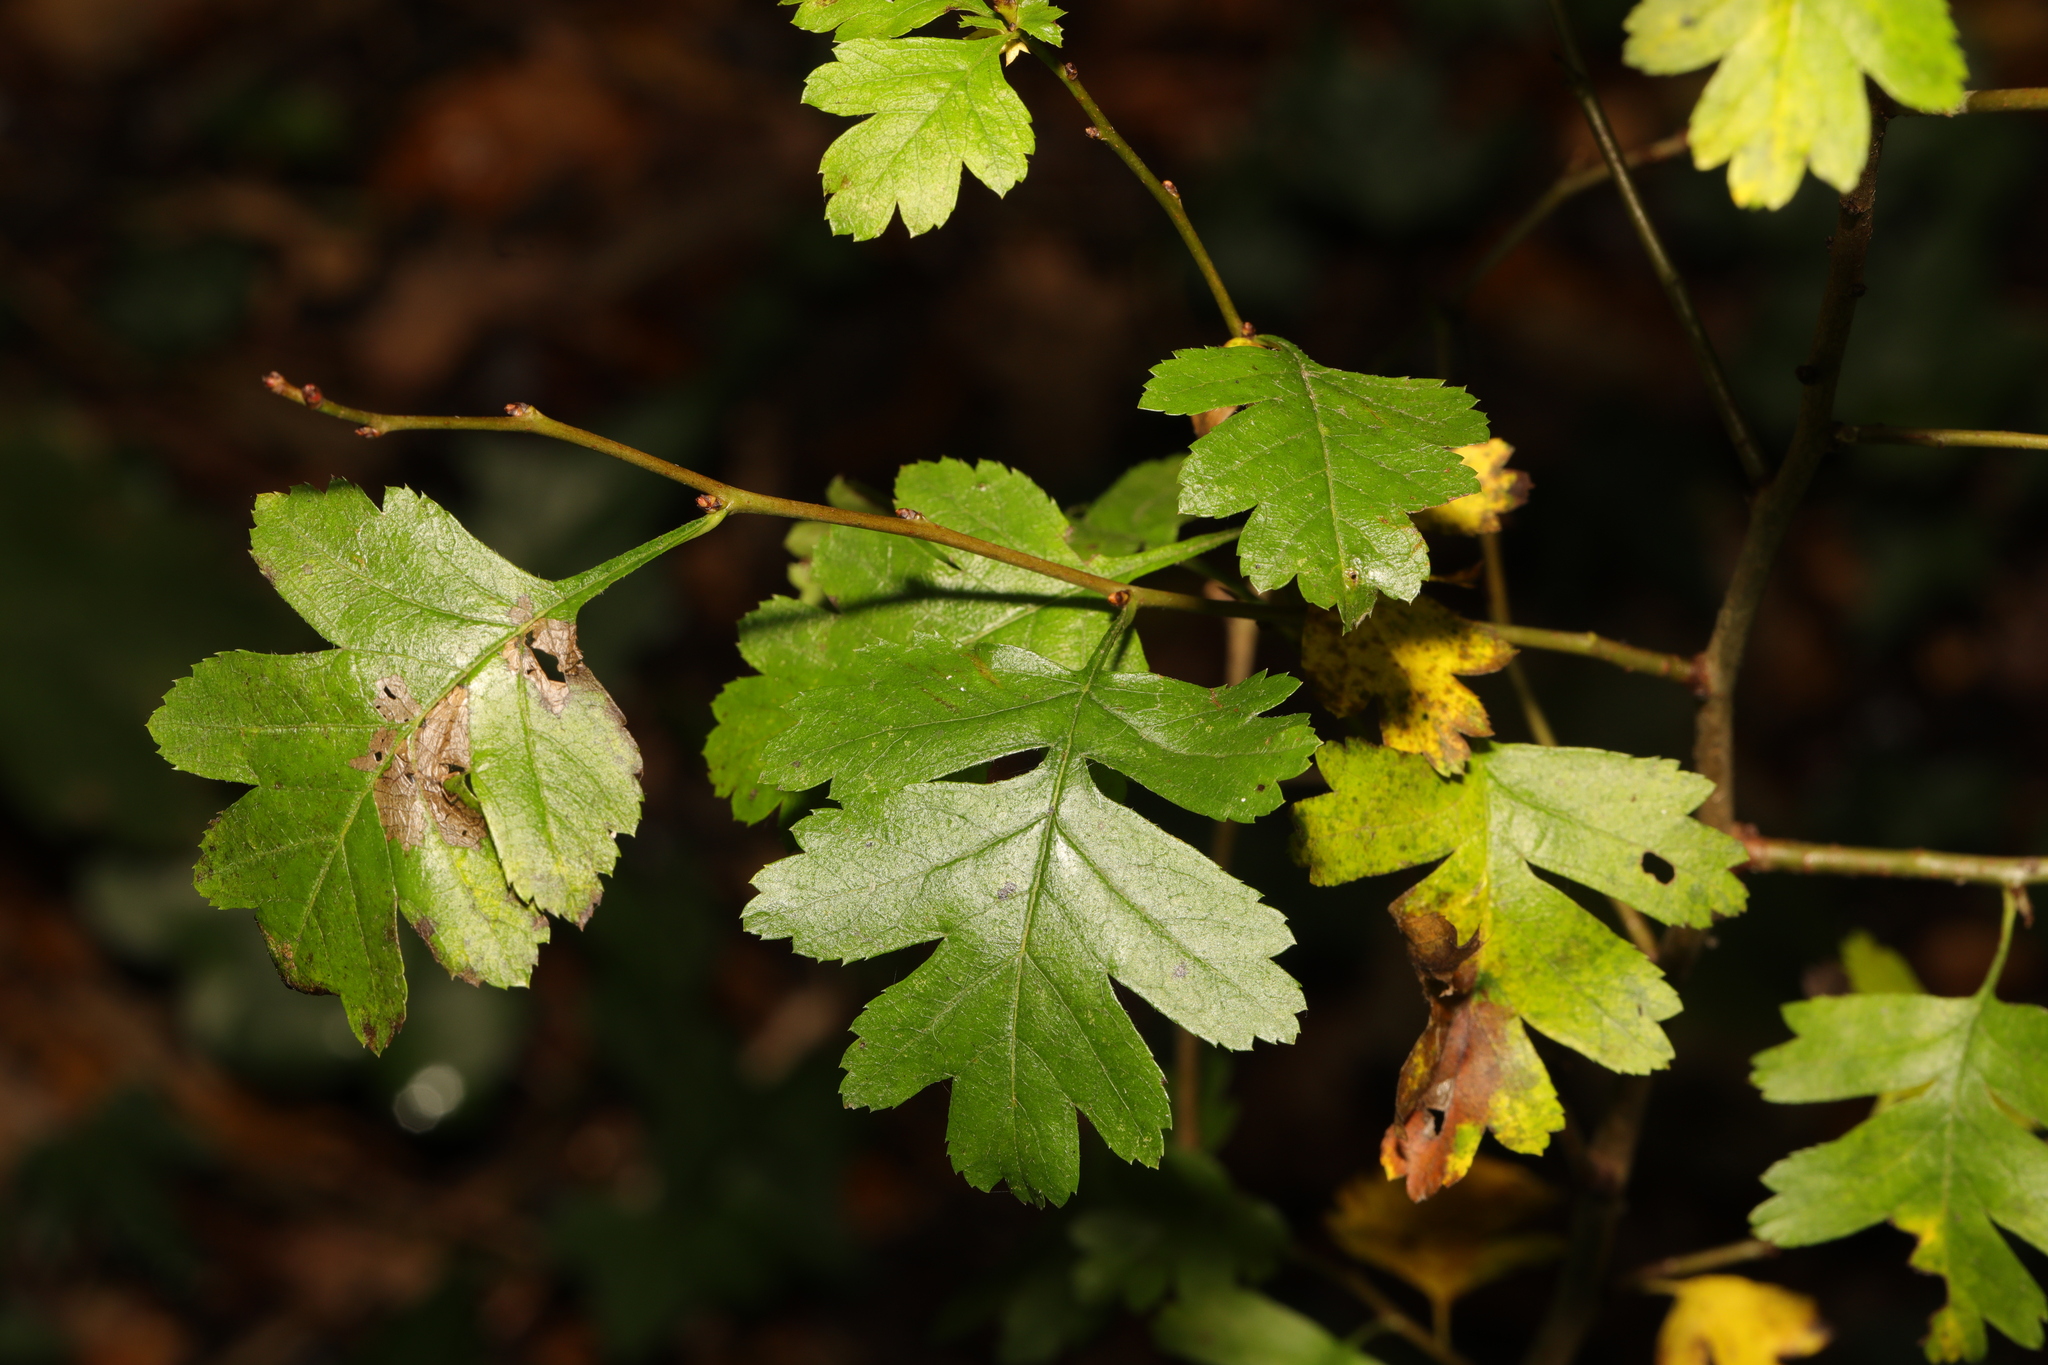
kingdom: Plantae
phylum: Tracheophyta
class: Magnoliopsida
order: Rosales
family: Rosaceae
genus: Crataegus
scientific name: Crataegus monogyna
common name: Hawthorn
